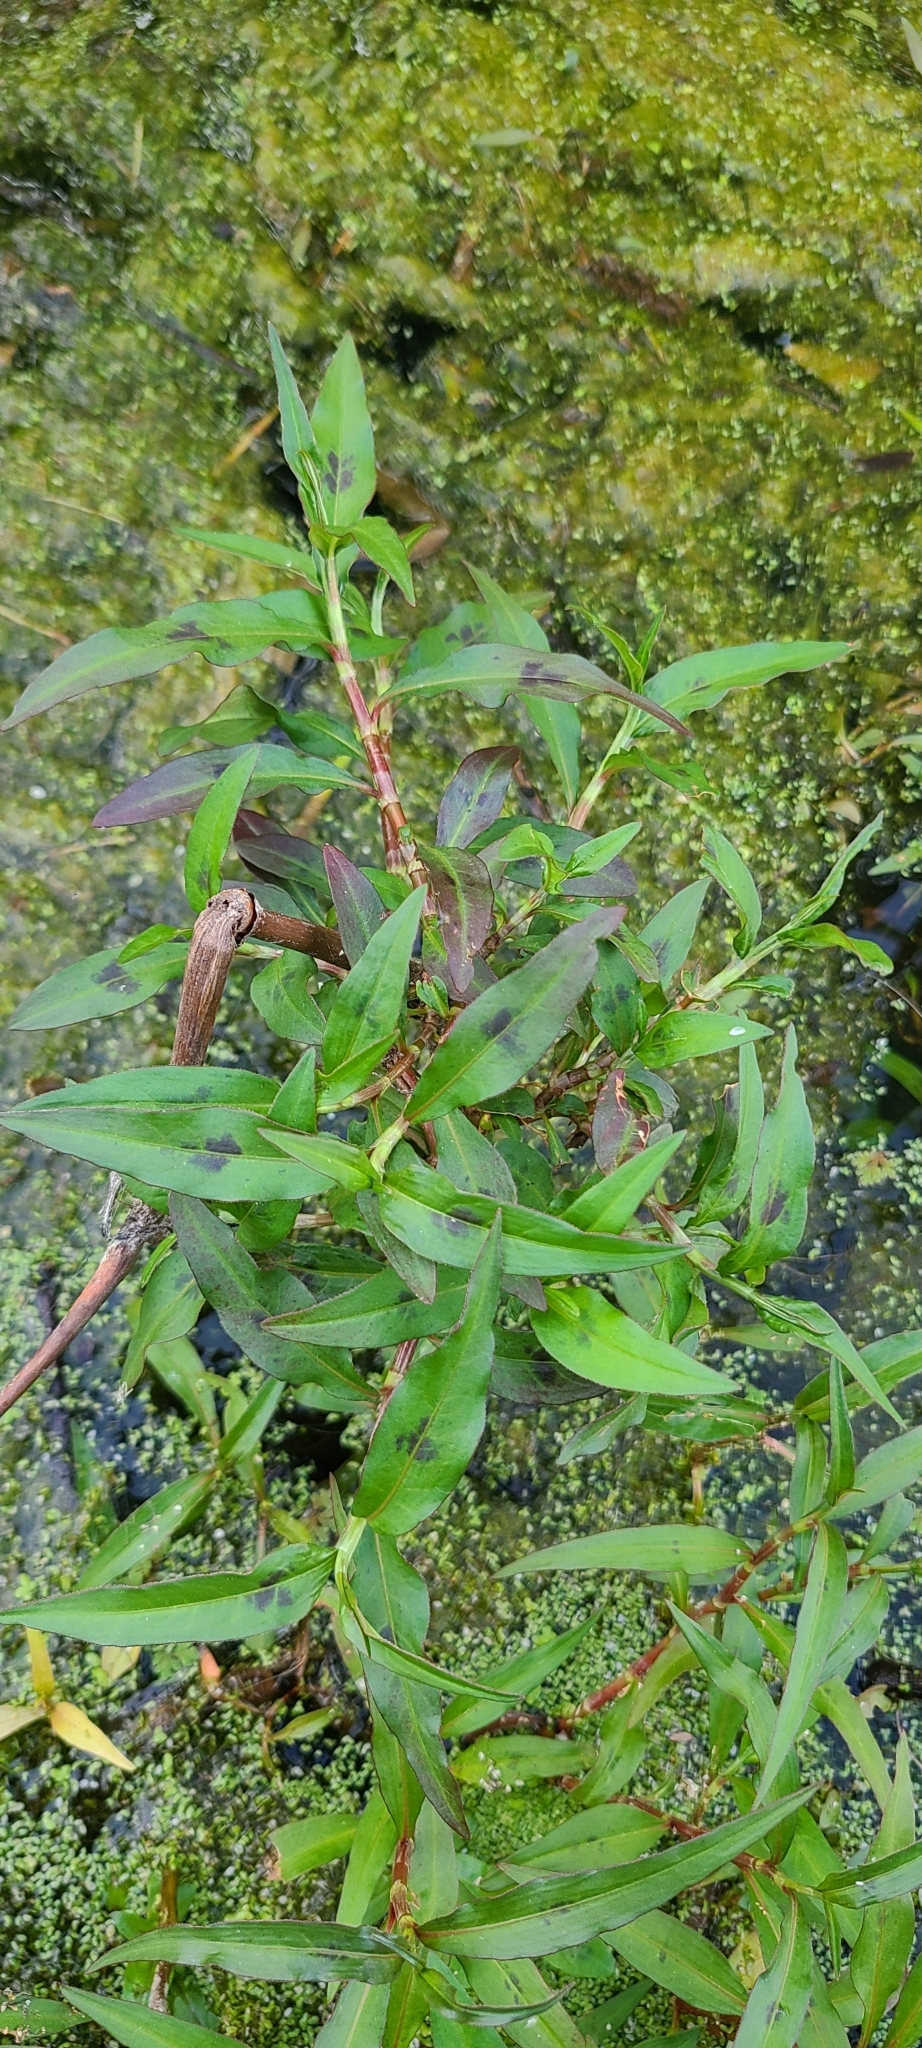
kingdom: Plantae
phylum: Tracheophyta
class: Magnoliopsida
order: Caryophyllales
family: Polygonaceae
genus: Persicaria
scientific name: Persicaria maculosa
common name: Redshank
